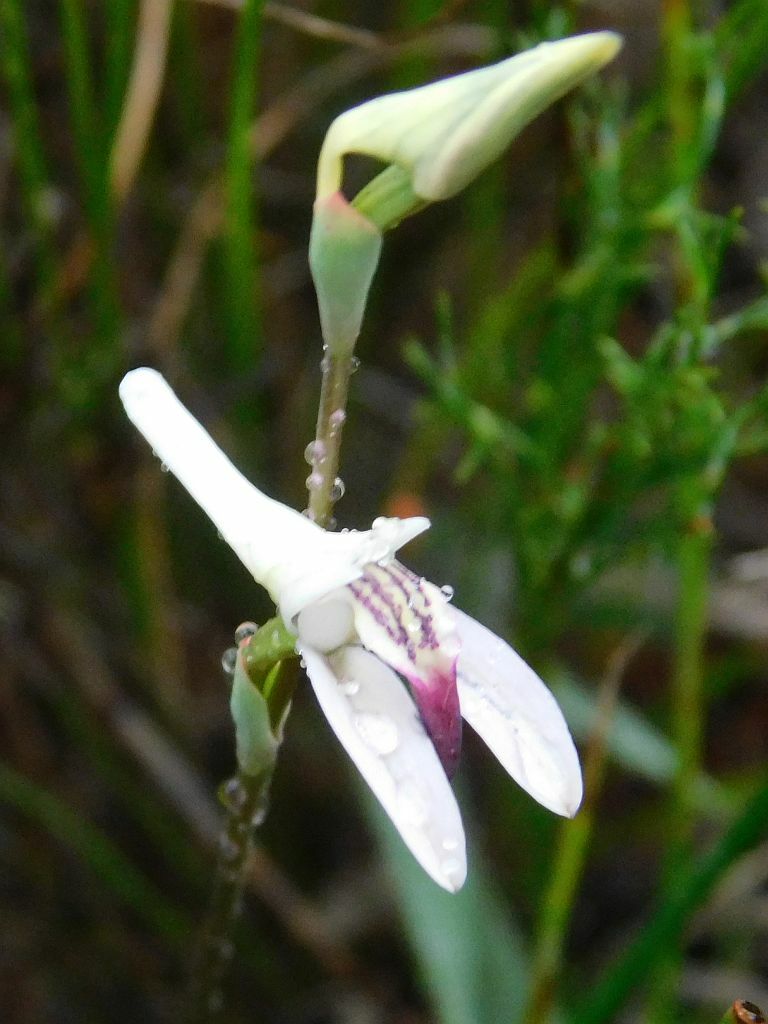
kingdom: Plantae
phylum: Tracheophyta
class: Liliopsida
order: Asparagales
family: Orchidaceae
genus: Disa
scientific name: Disa bifida
